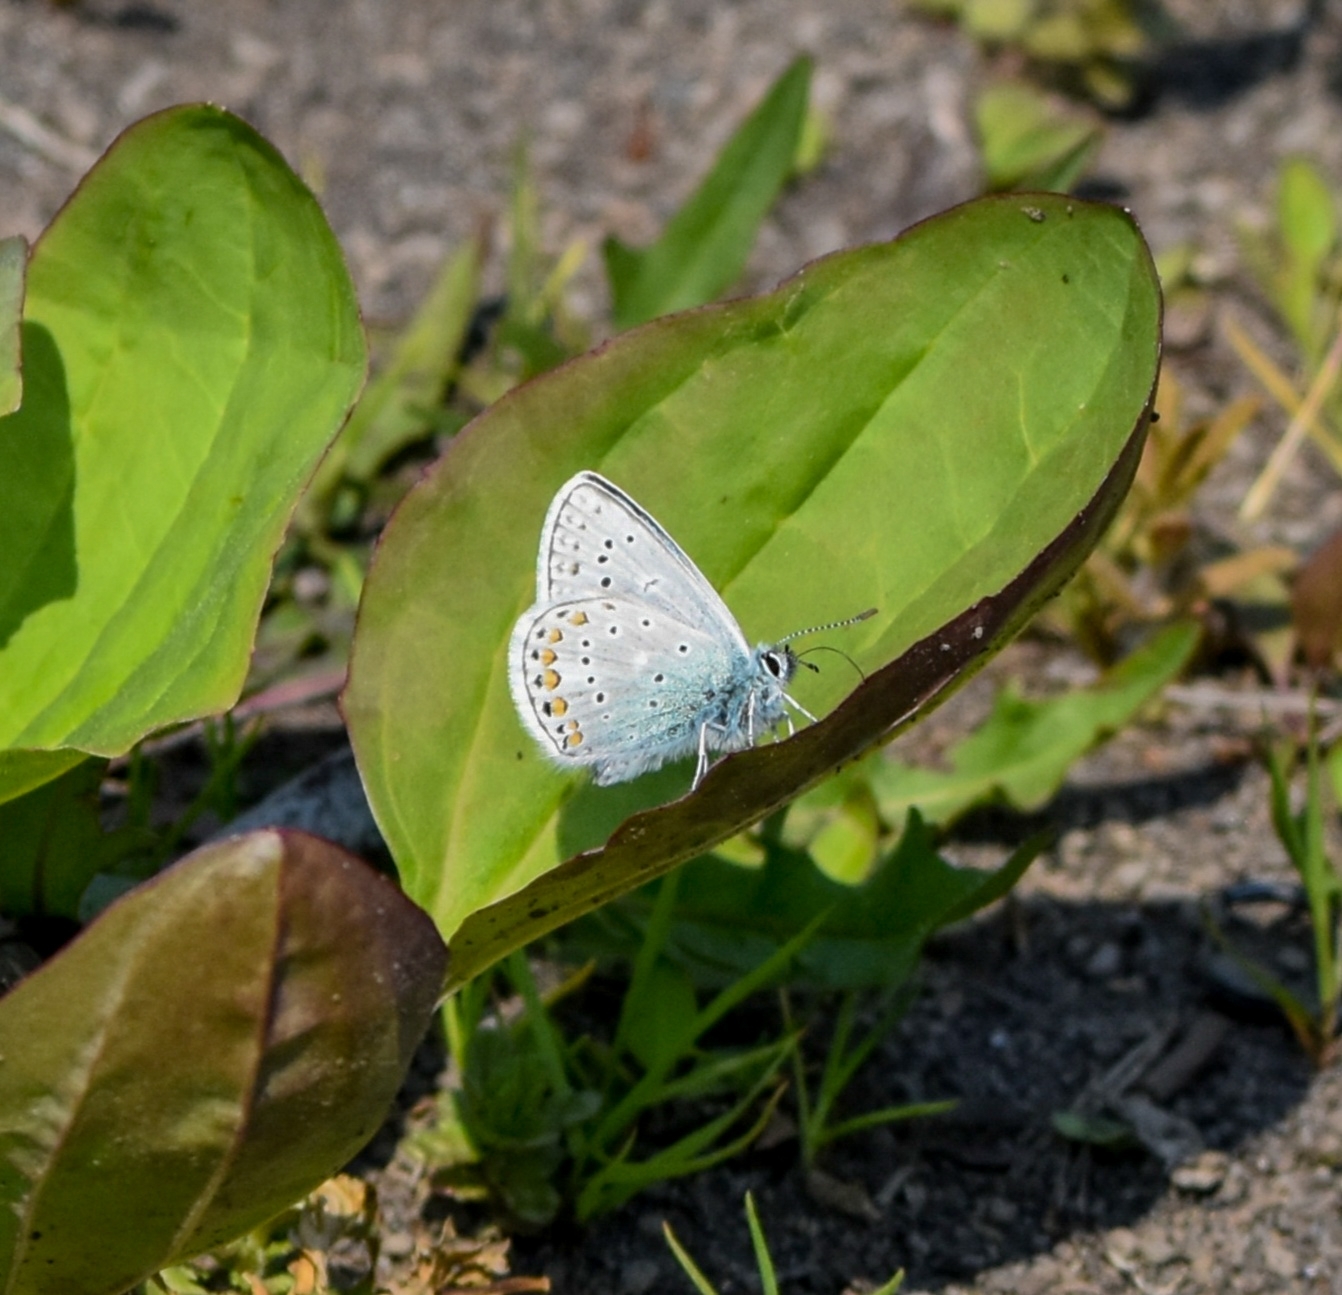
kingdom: Animalia
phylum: Arthropoda
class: Insecta
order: Lepidoptera
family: Lycaenidae
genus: Polyommatus
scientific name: Polyommatus kamtshadalis
